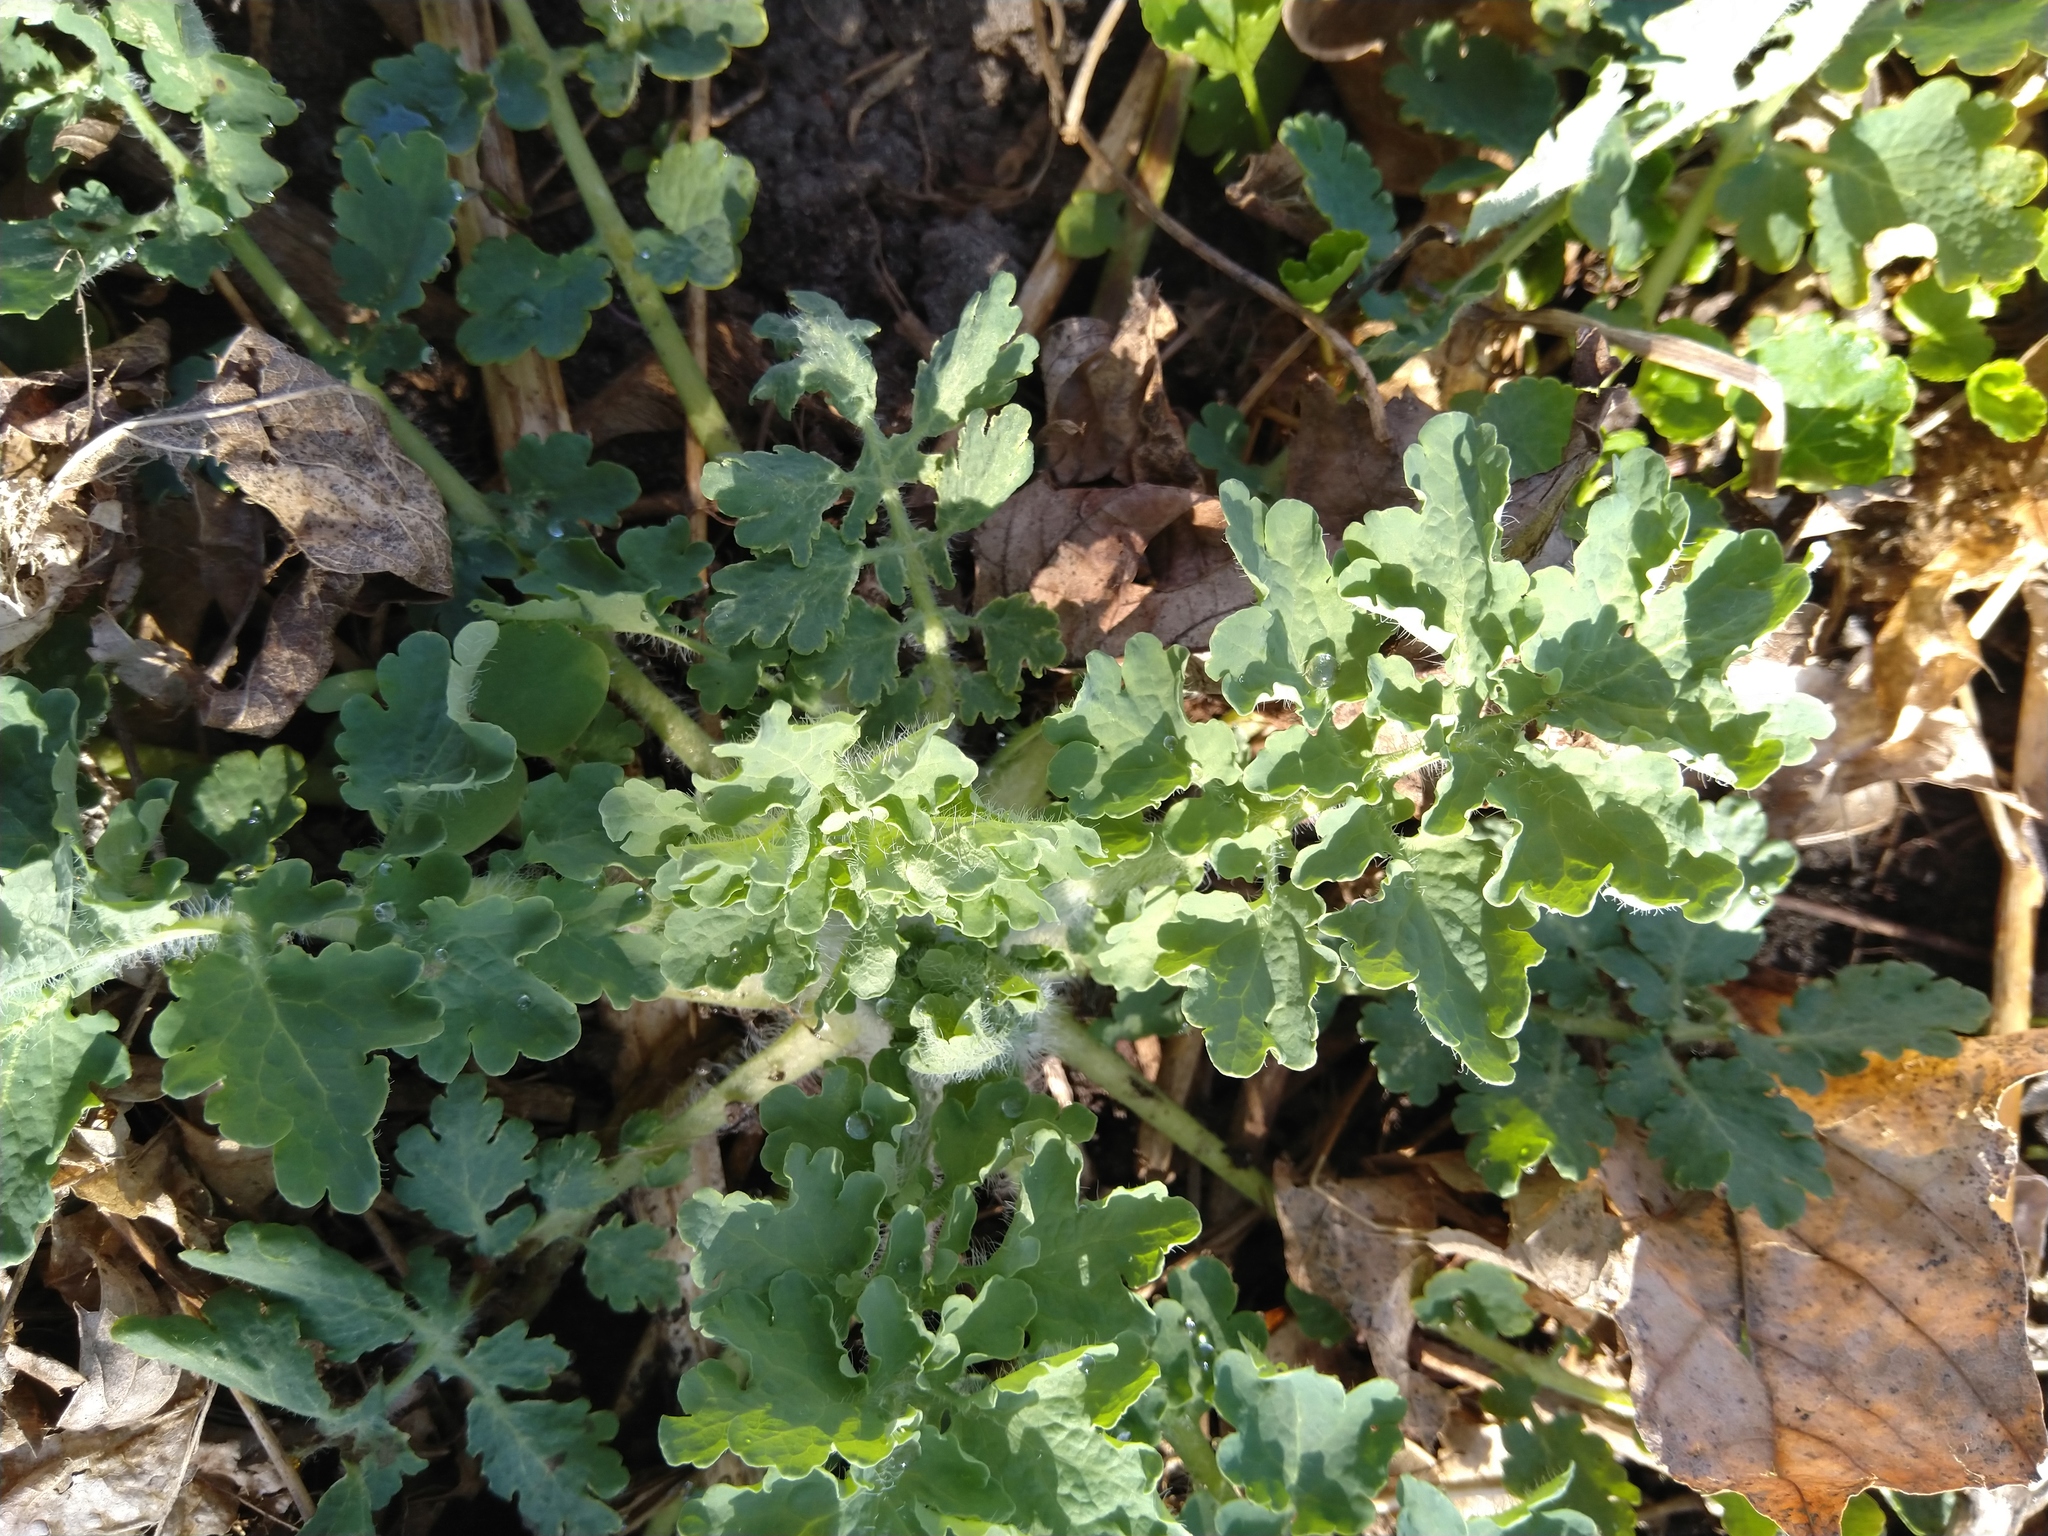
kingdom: Plantae
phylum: Tracheophyta
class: Magnoliopsida
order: Ranunculales
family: Papaveraceae
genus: Chelidonium
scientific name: Chelidonium majus
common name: Greater celandine
